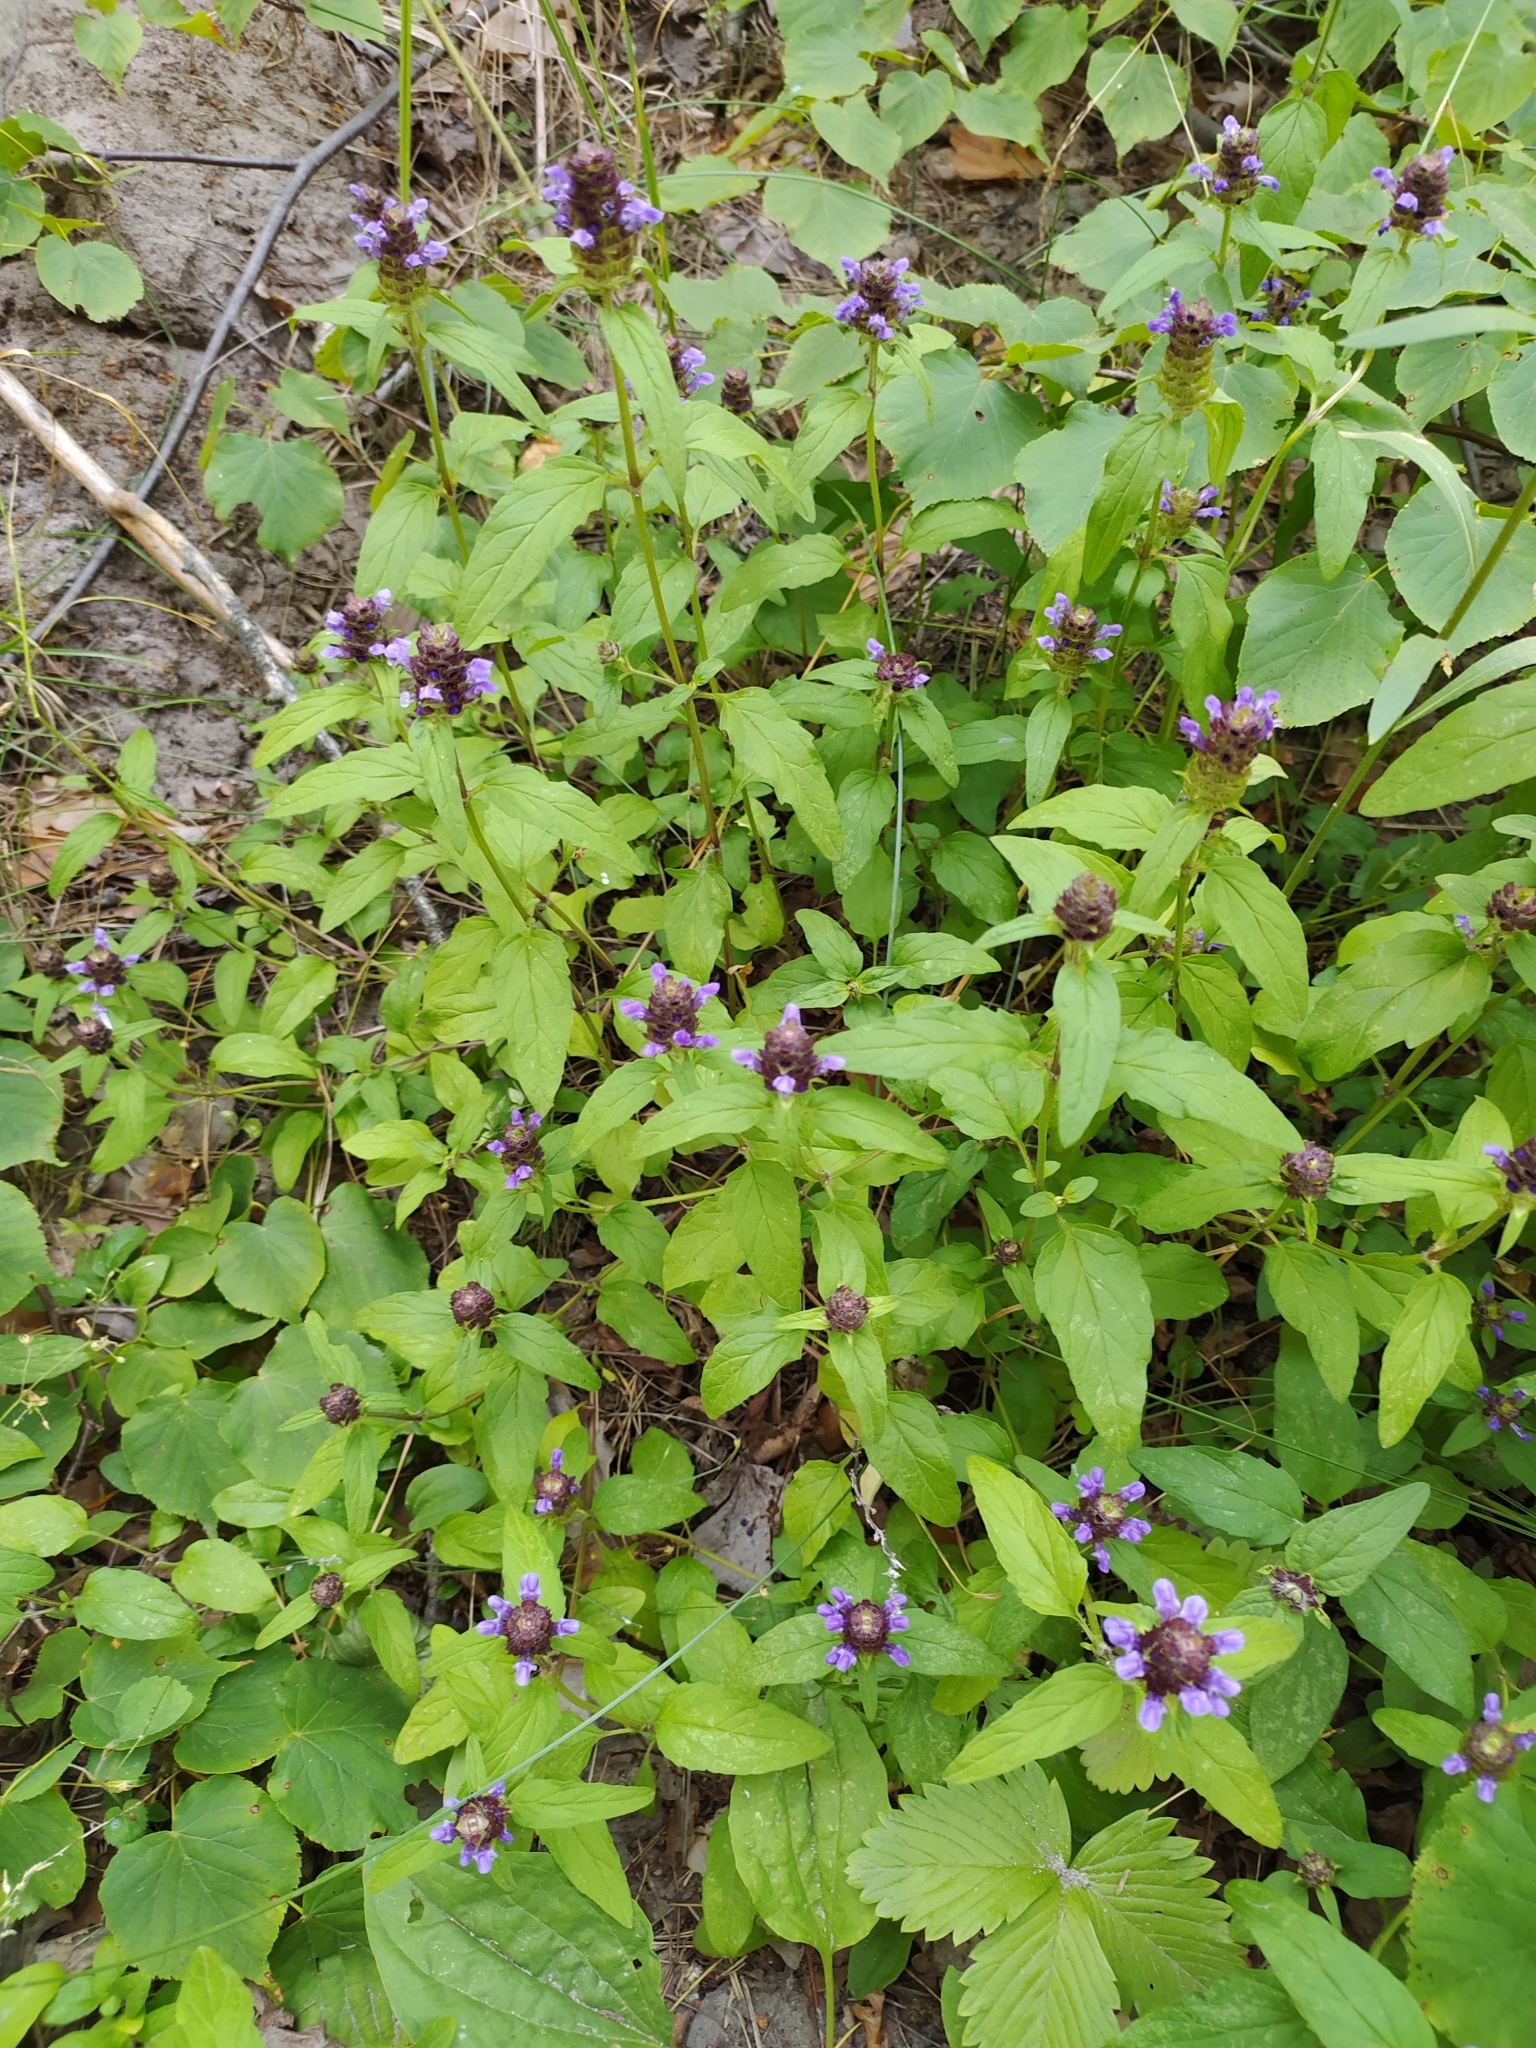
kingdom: Plantae
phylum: Tracheophyta
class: Magnoliopsida
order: Lamiales
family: Lamiaceae
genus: Prunella
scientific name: Prunella vulgaris
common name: Heal-all
